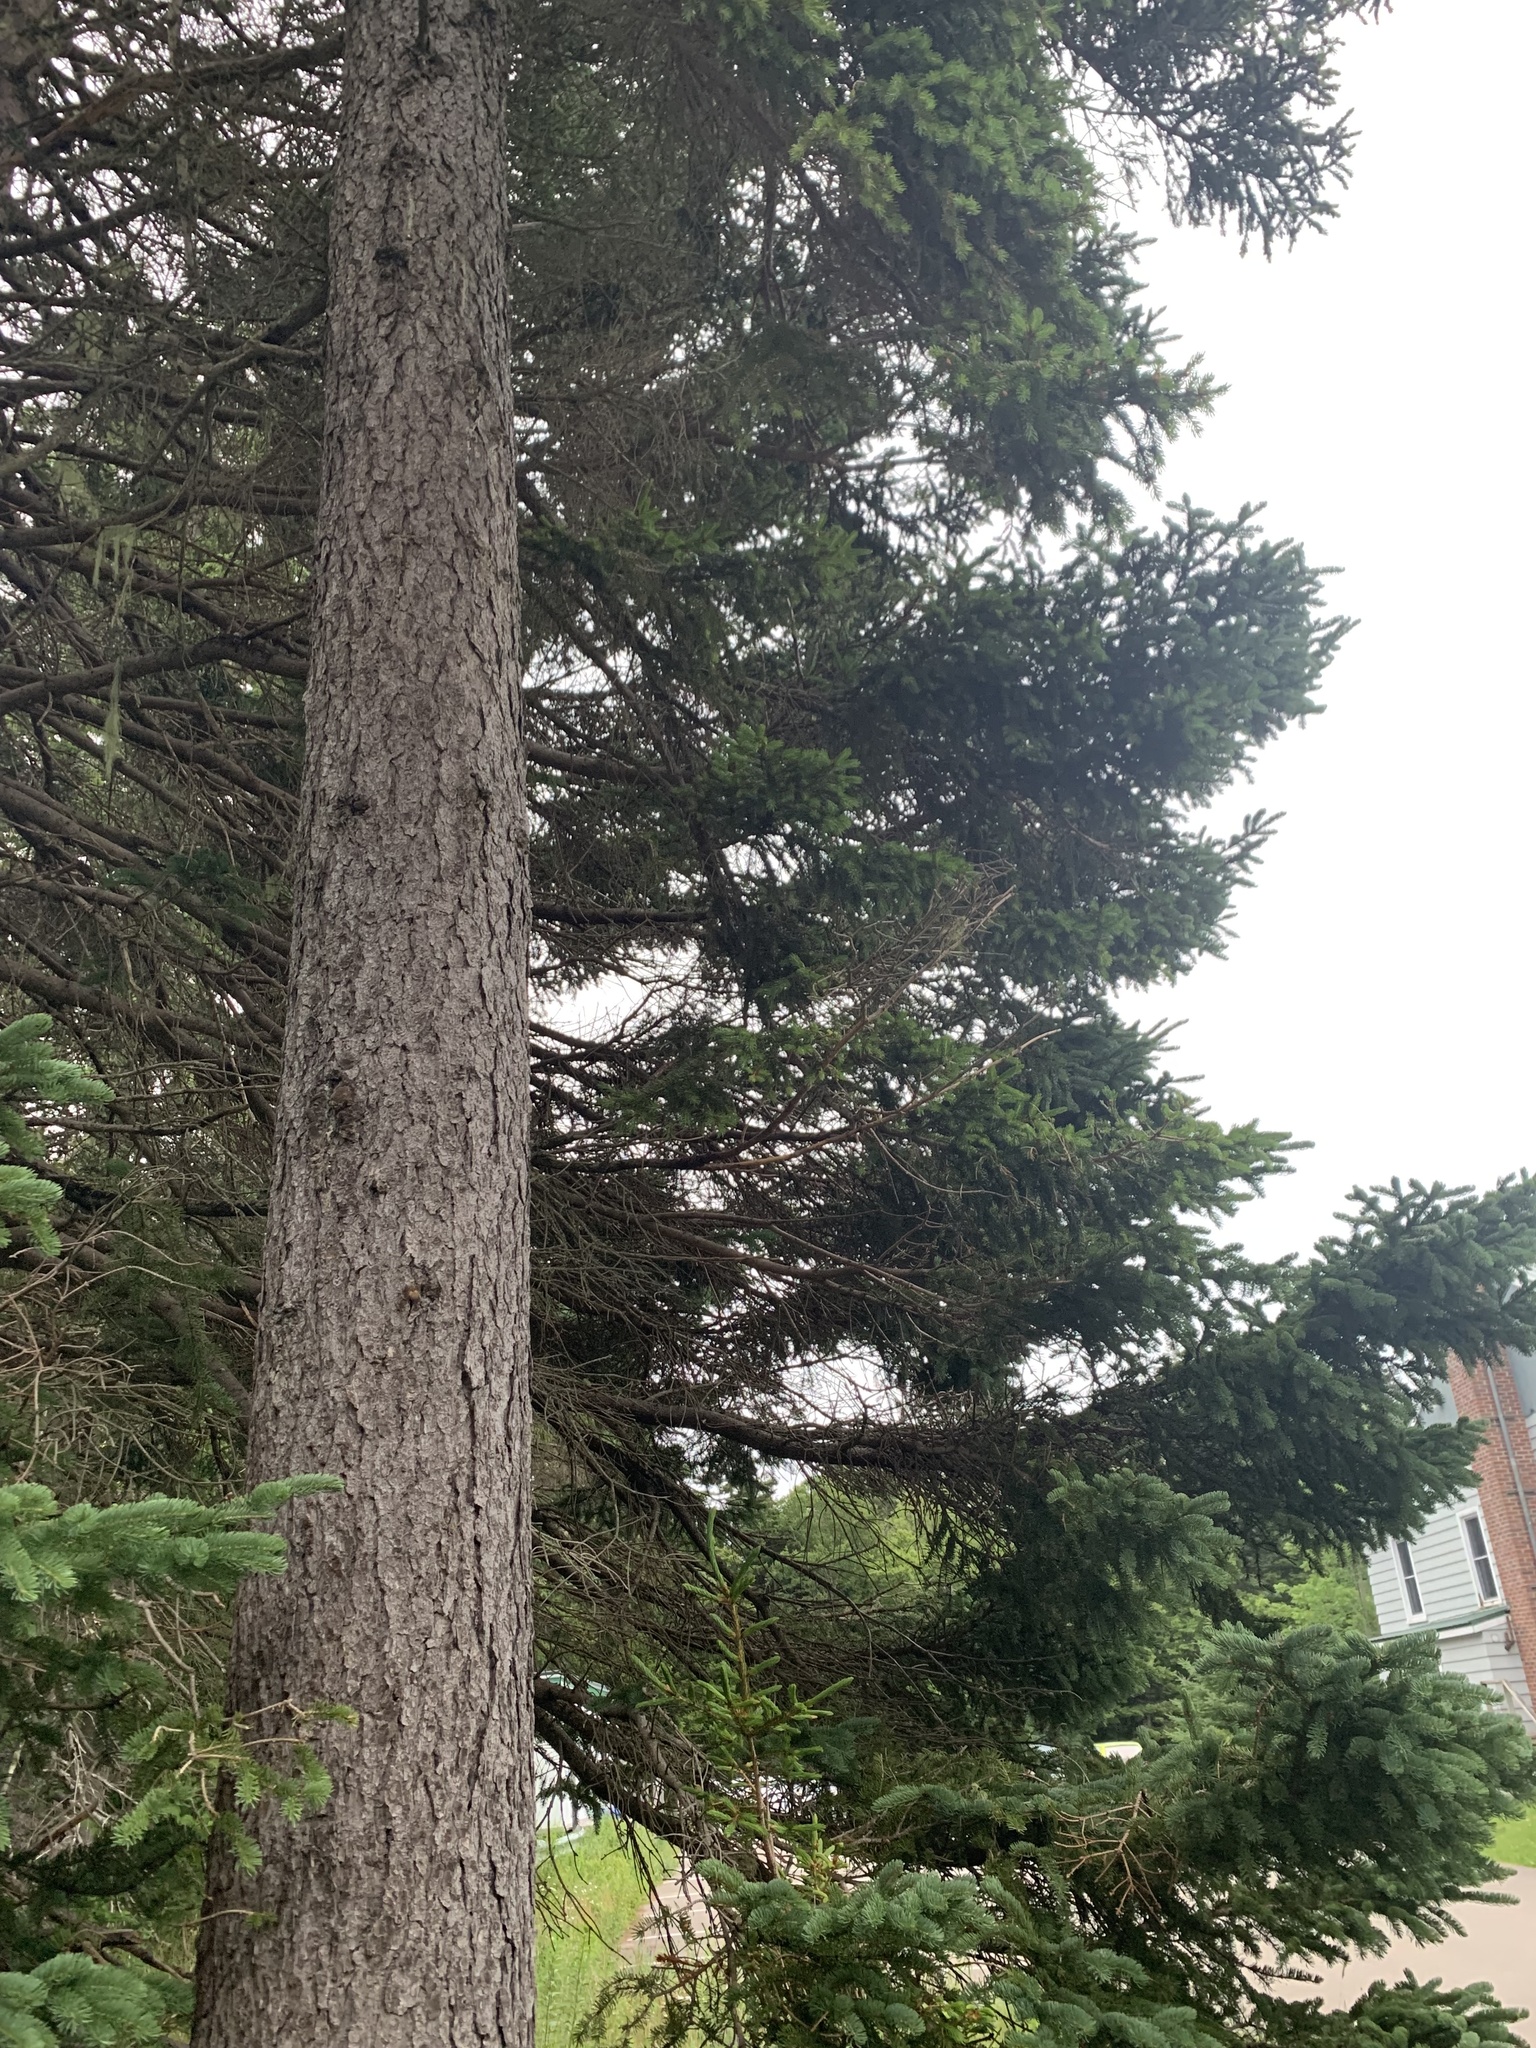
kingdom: Plantae
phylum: Tracheophyta
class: Pinopsida
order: Pinales
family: Pinaceae
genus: Picea
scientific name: Picea rubens
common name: Red spruce
